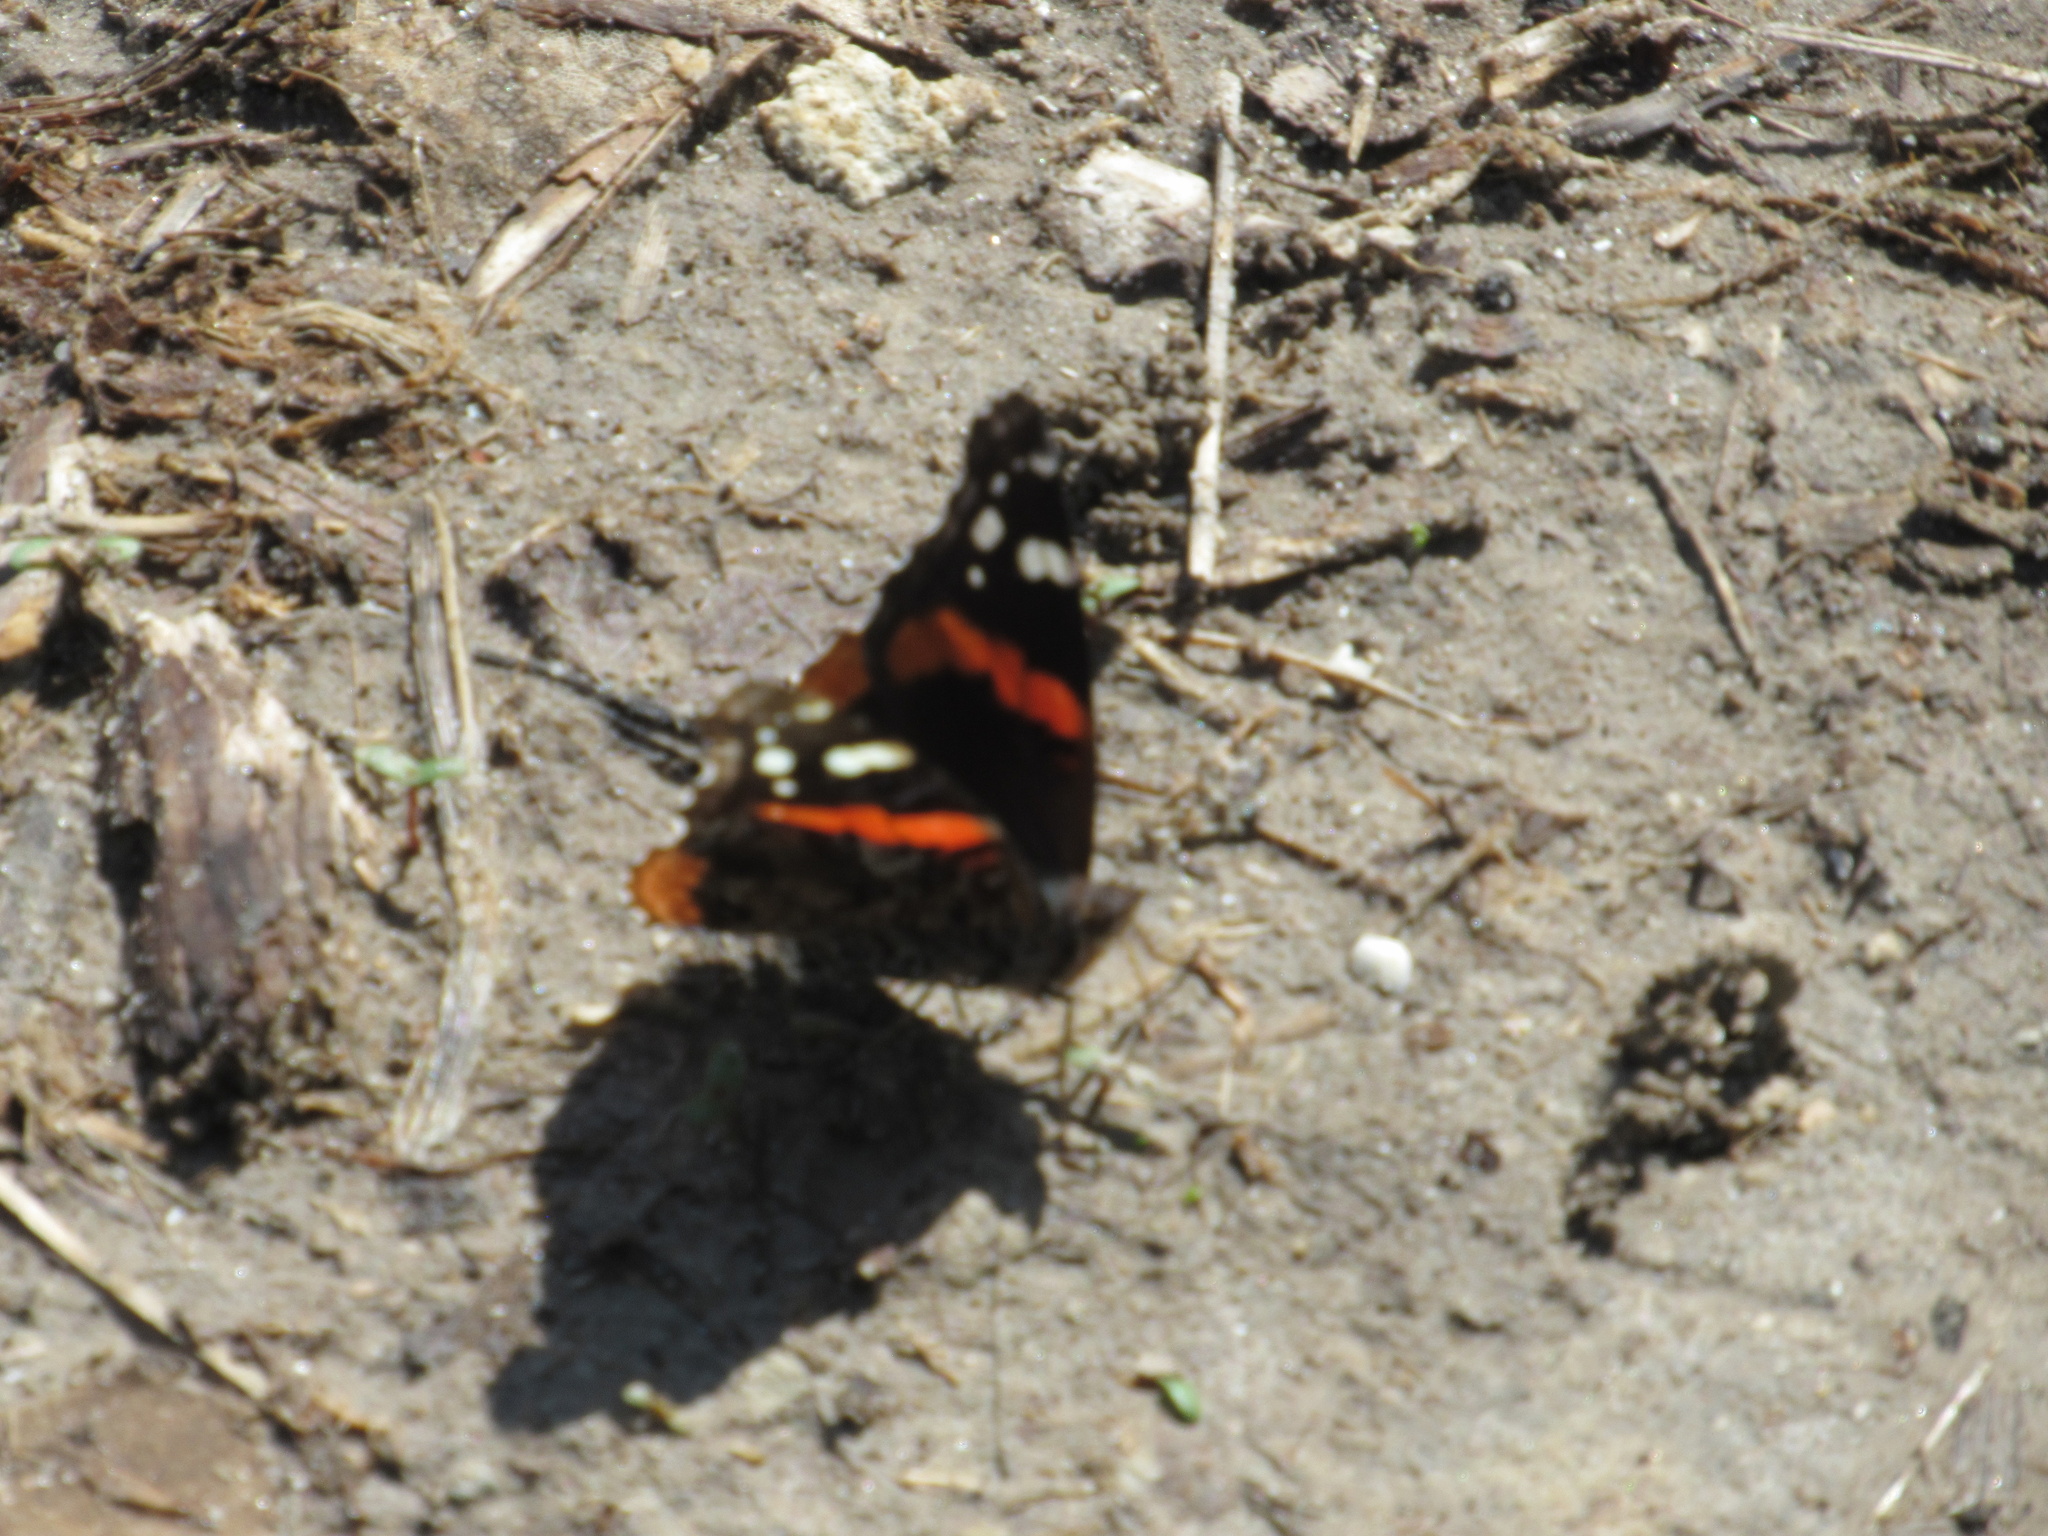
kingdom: Animalia
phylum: Arthropoda
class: Insecta
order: Lepidoptera
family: Nymphalidae
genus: Vanessa
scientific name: Vanessa atalanta
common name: Red admiral
